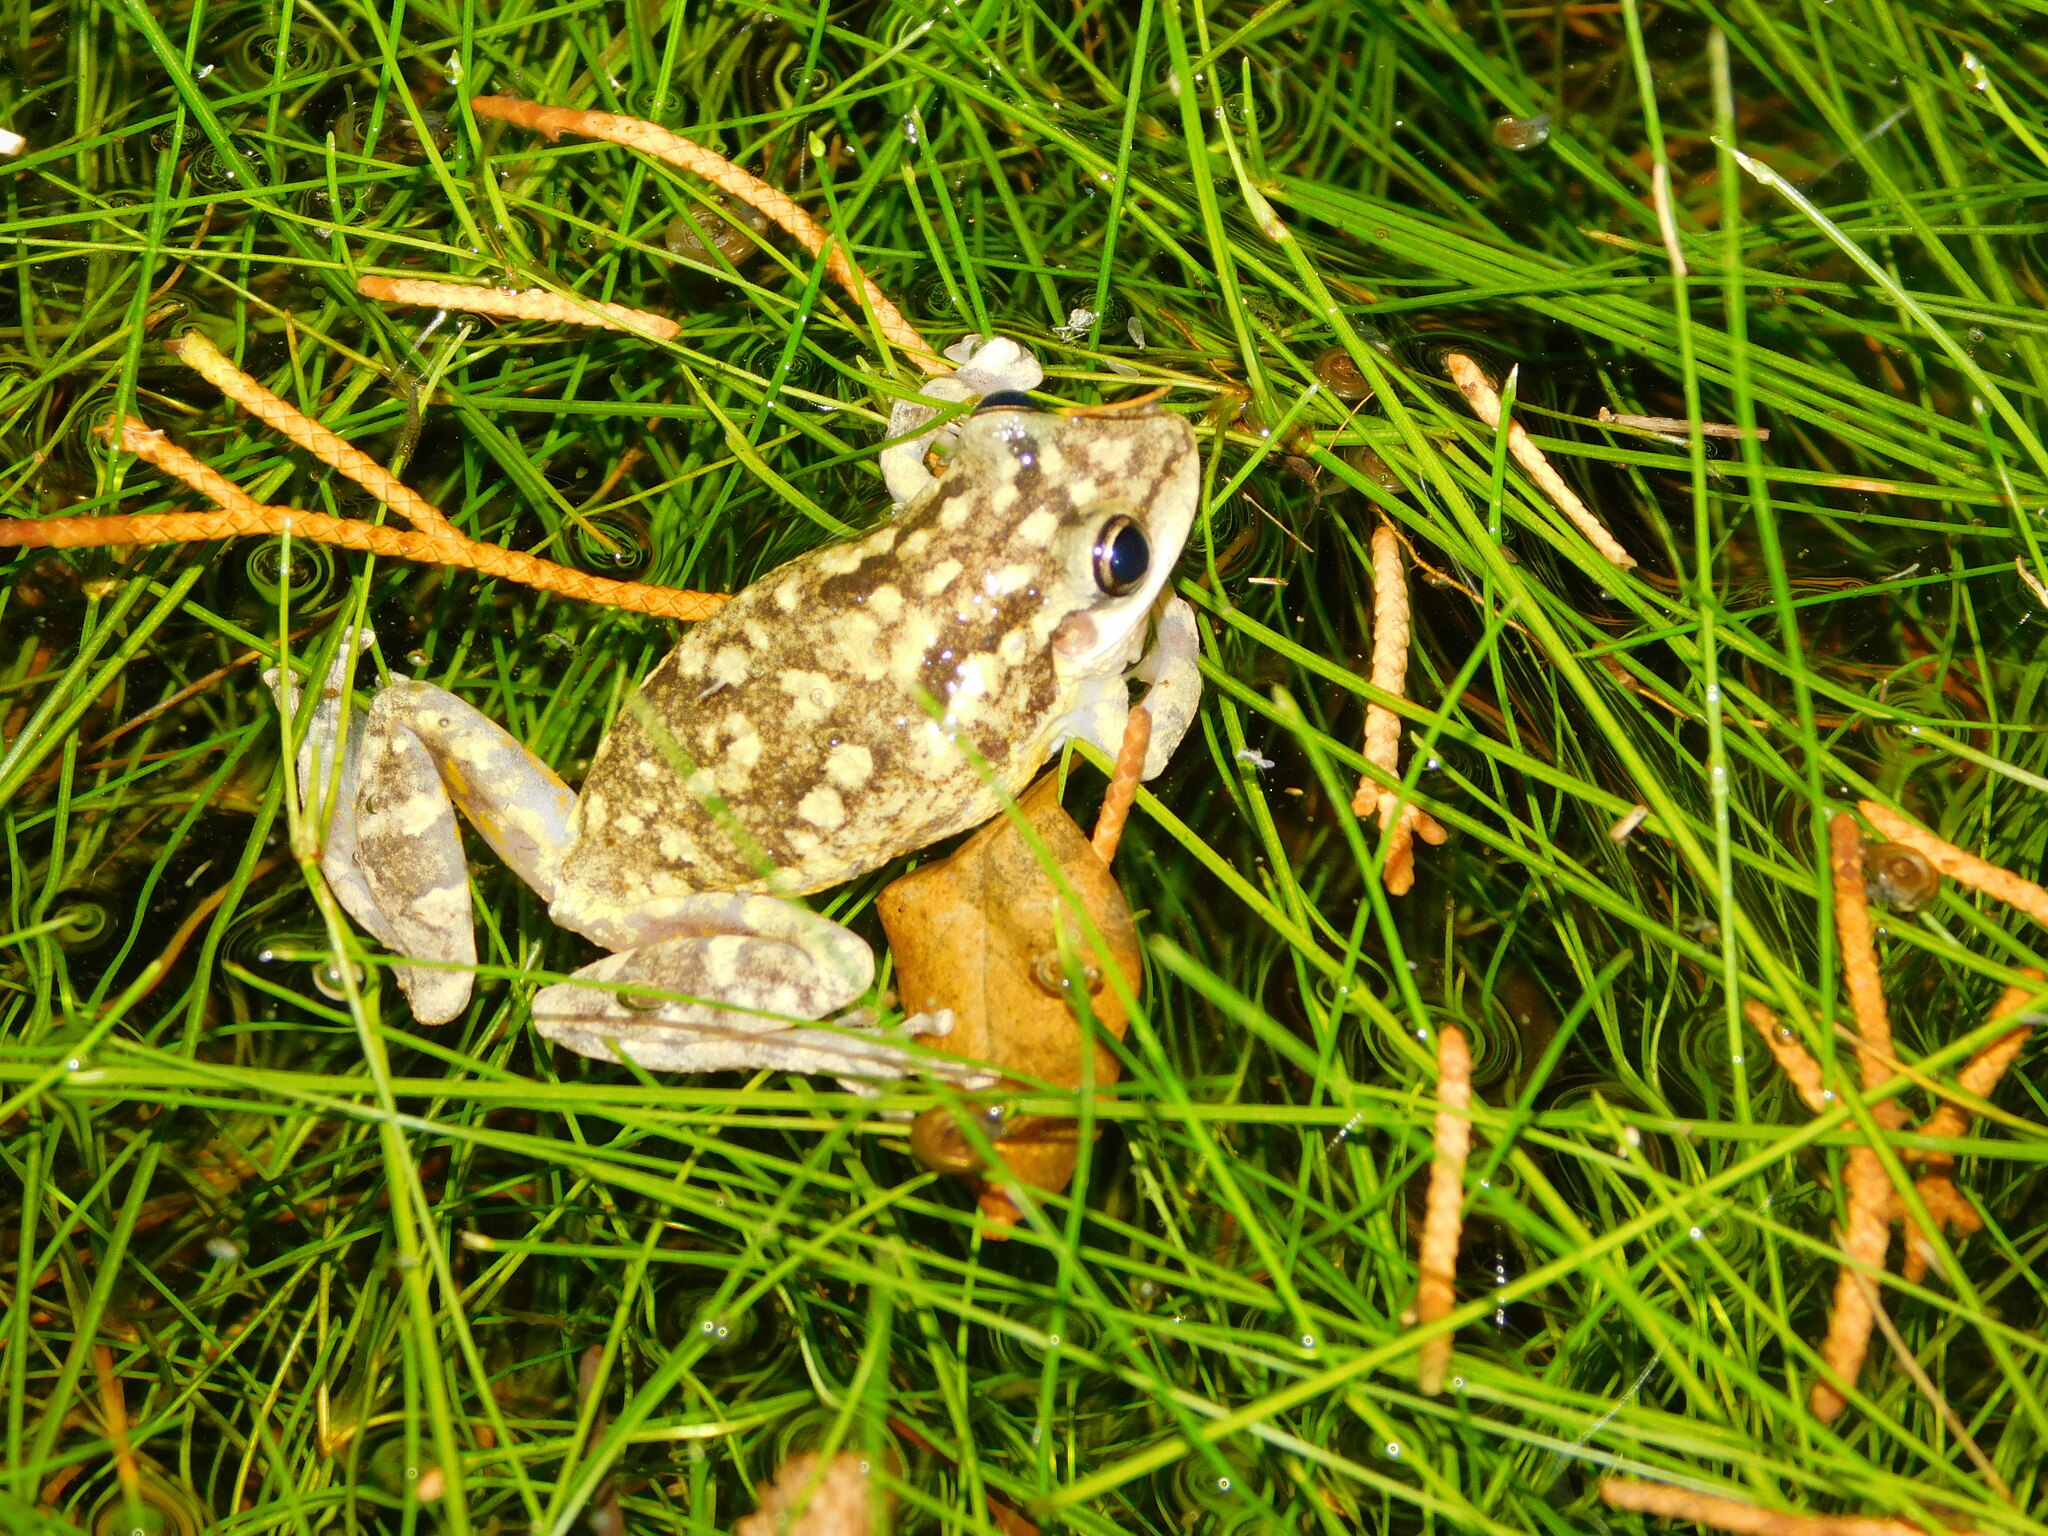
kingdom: Animalia
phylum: Chordata
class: Amphibia
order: Anura
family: Hylidae
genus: Scinax
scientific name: Scinax nasicus
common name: Lesser snouted treefrog
